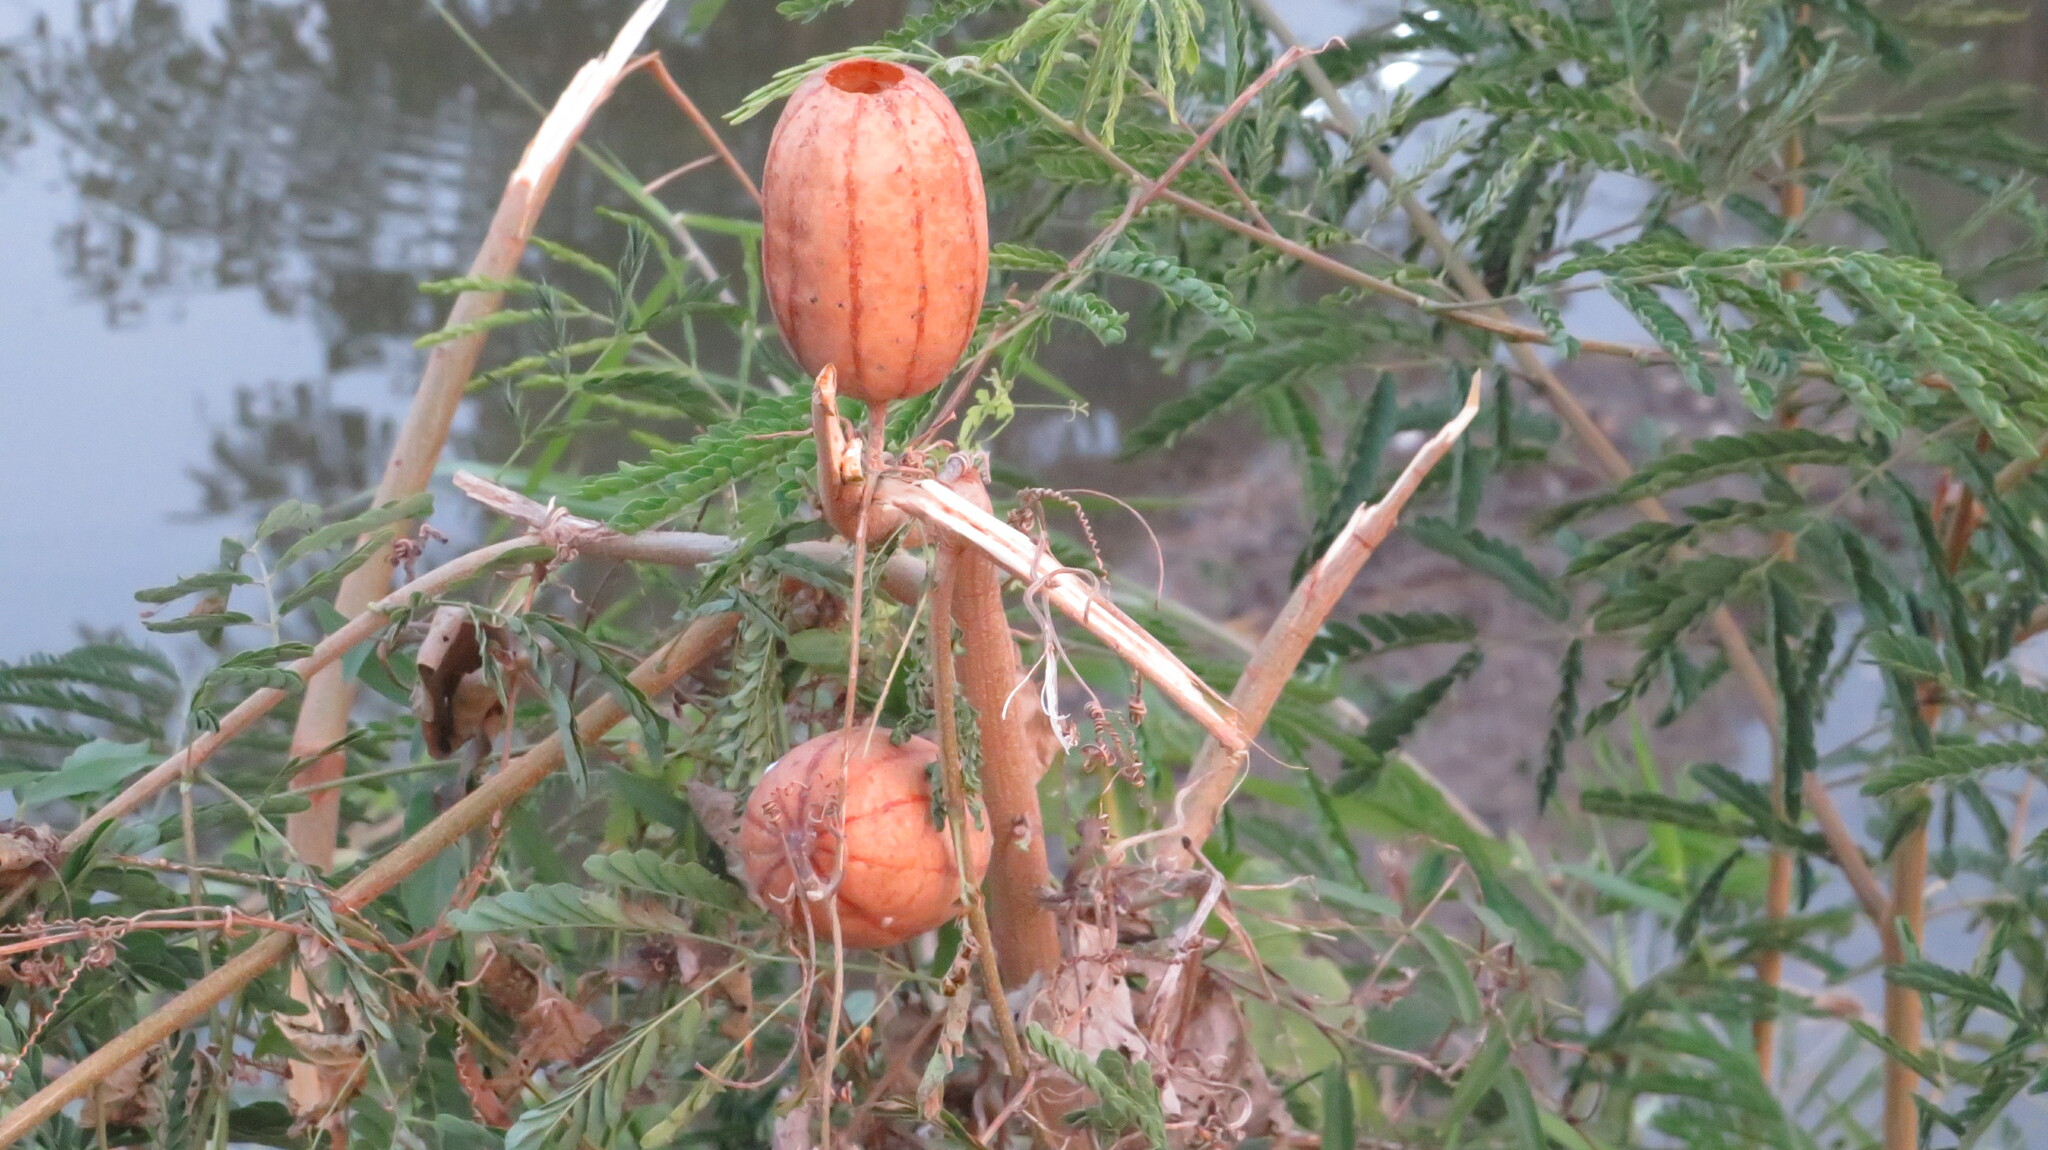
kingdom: Plantae
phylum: Tracheophyta
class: Magnoliopsida
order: Cucurbitales
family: Cucurbitaceae
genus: Luffa
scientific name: Luffa aegyptiaca
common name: Sponge gourd
